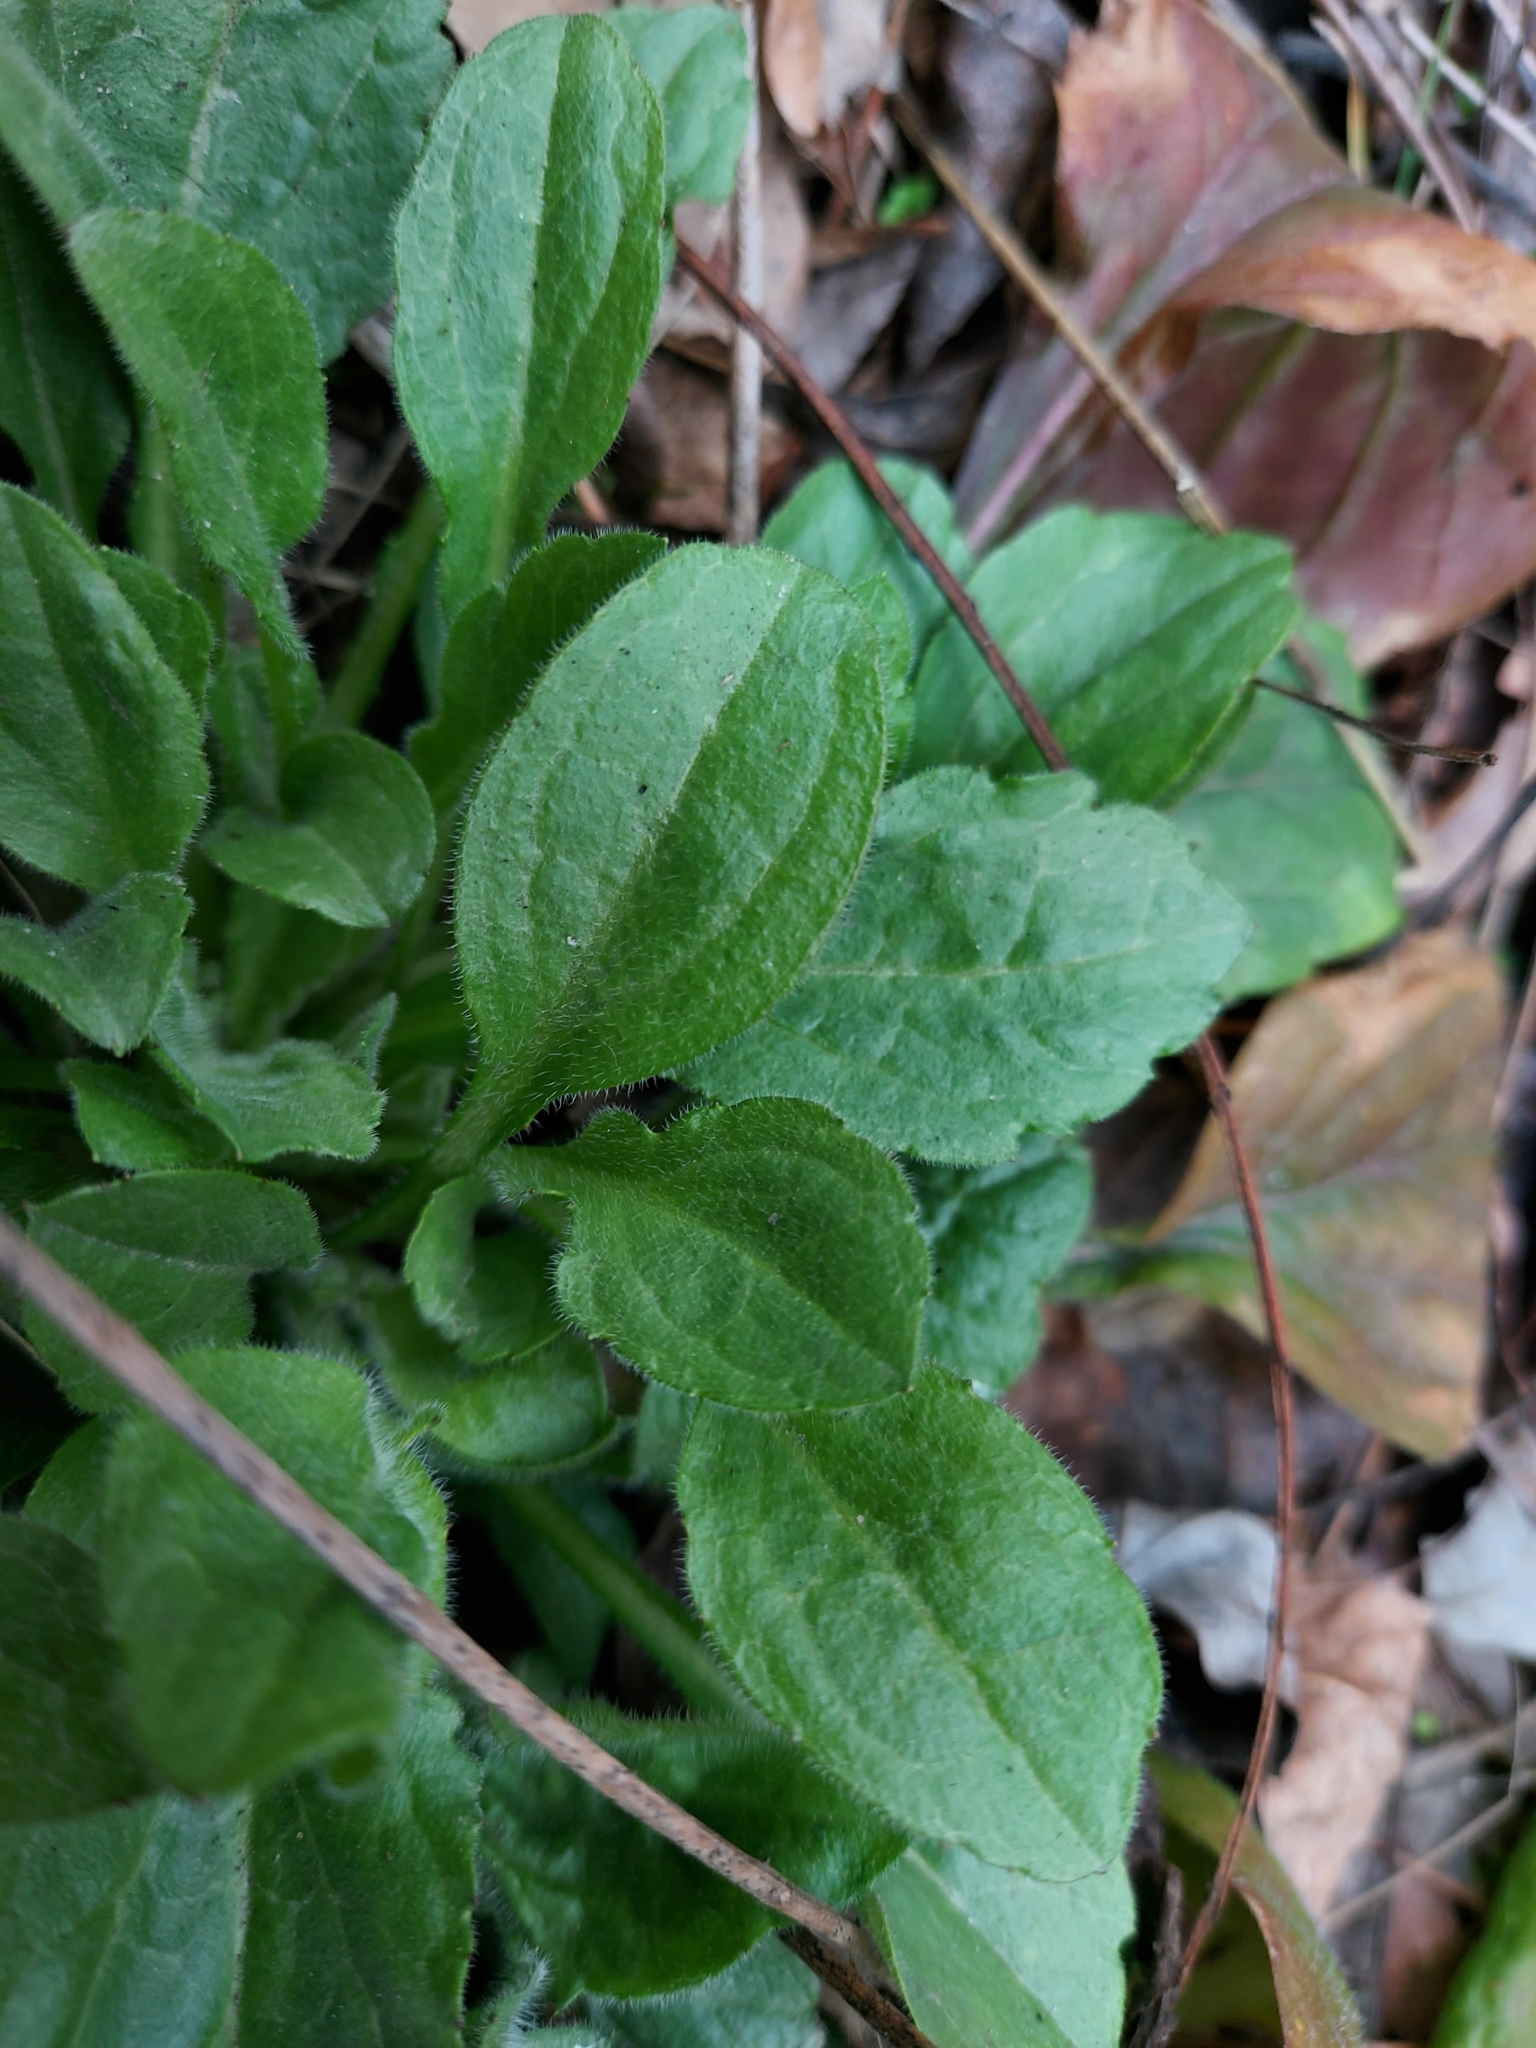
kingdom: Plantae
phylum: Tracheophyta
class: Magnoliopsida
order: Asterales
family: Asteraceae
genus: Erigeron
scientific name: Erigeron annuus
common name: Tall fleabane
